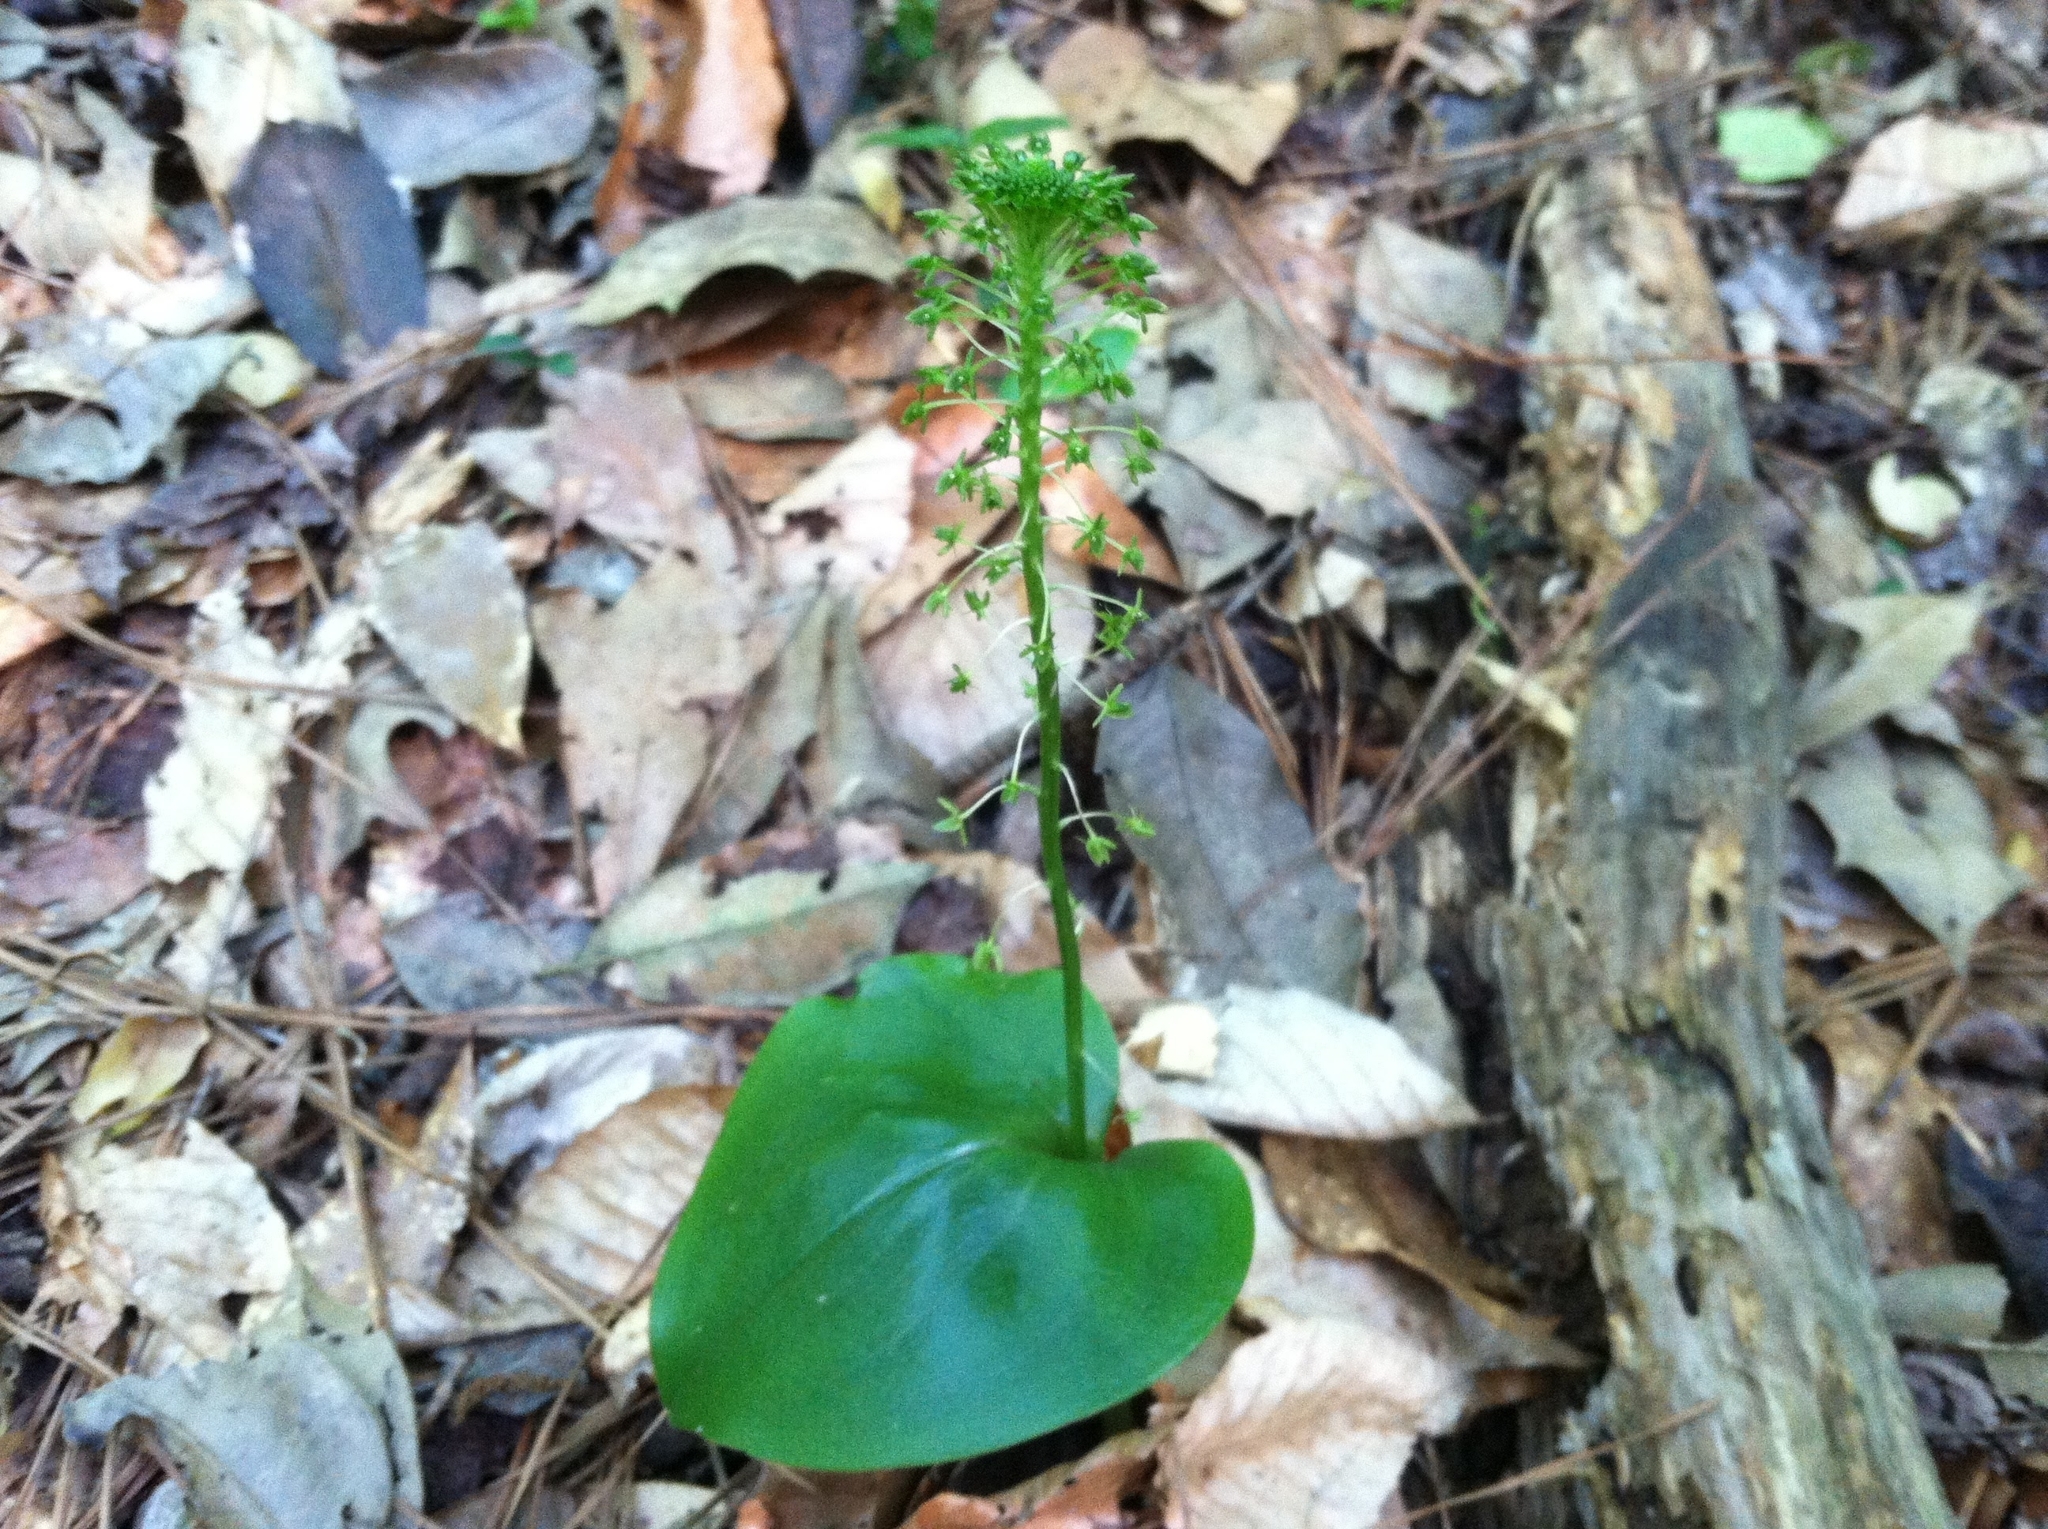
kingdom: Plantae
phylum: Tracheophyta
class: Liliopsida
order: Asparagales
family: Orchidaceae
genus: Malaxis
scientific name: Malaxis unifolia
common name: Green adder's-mouth
